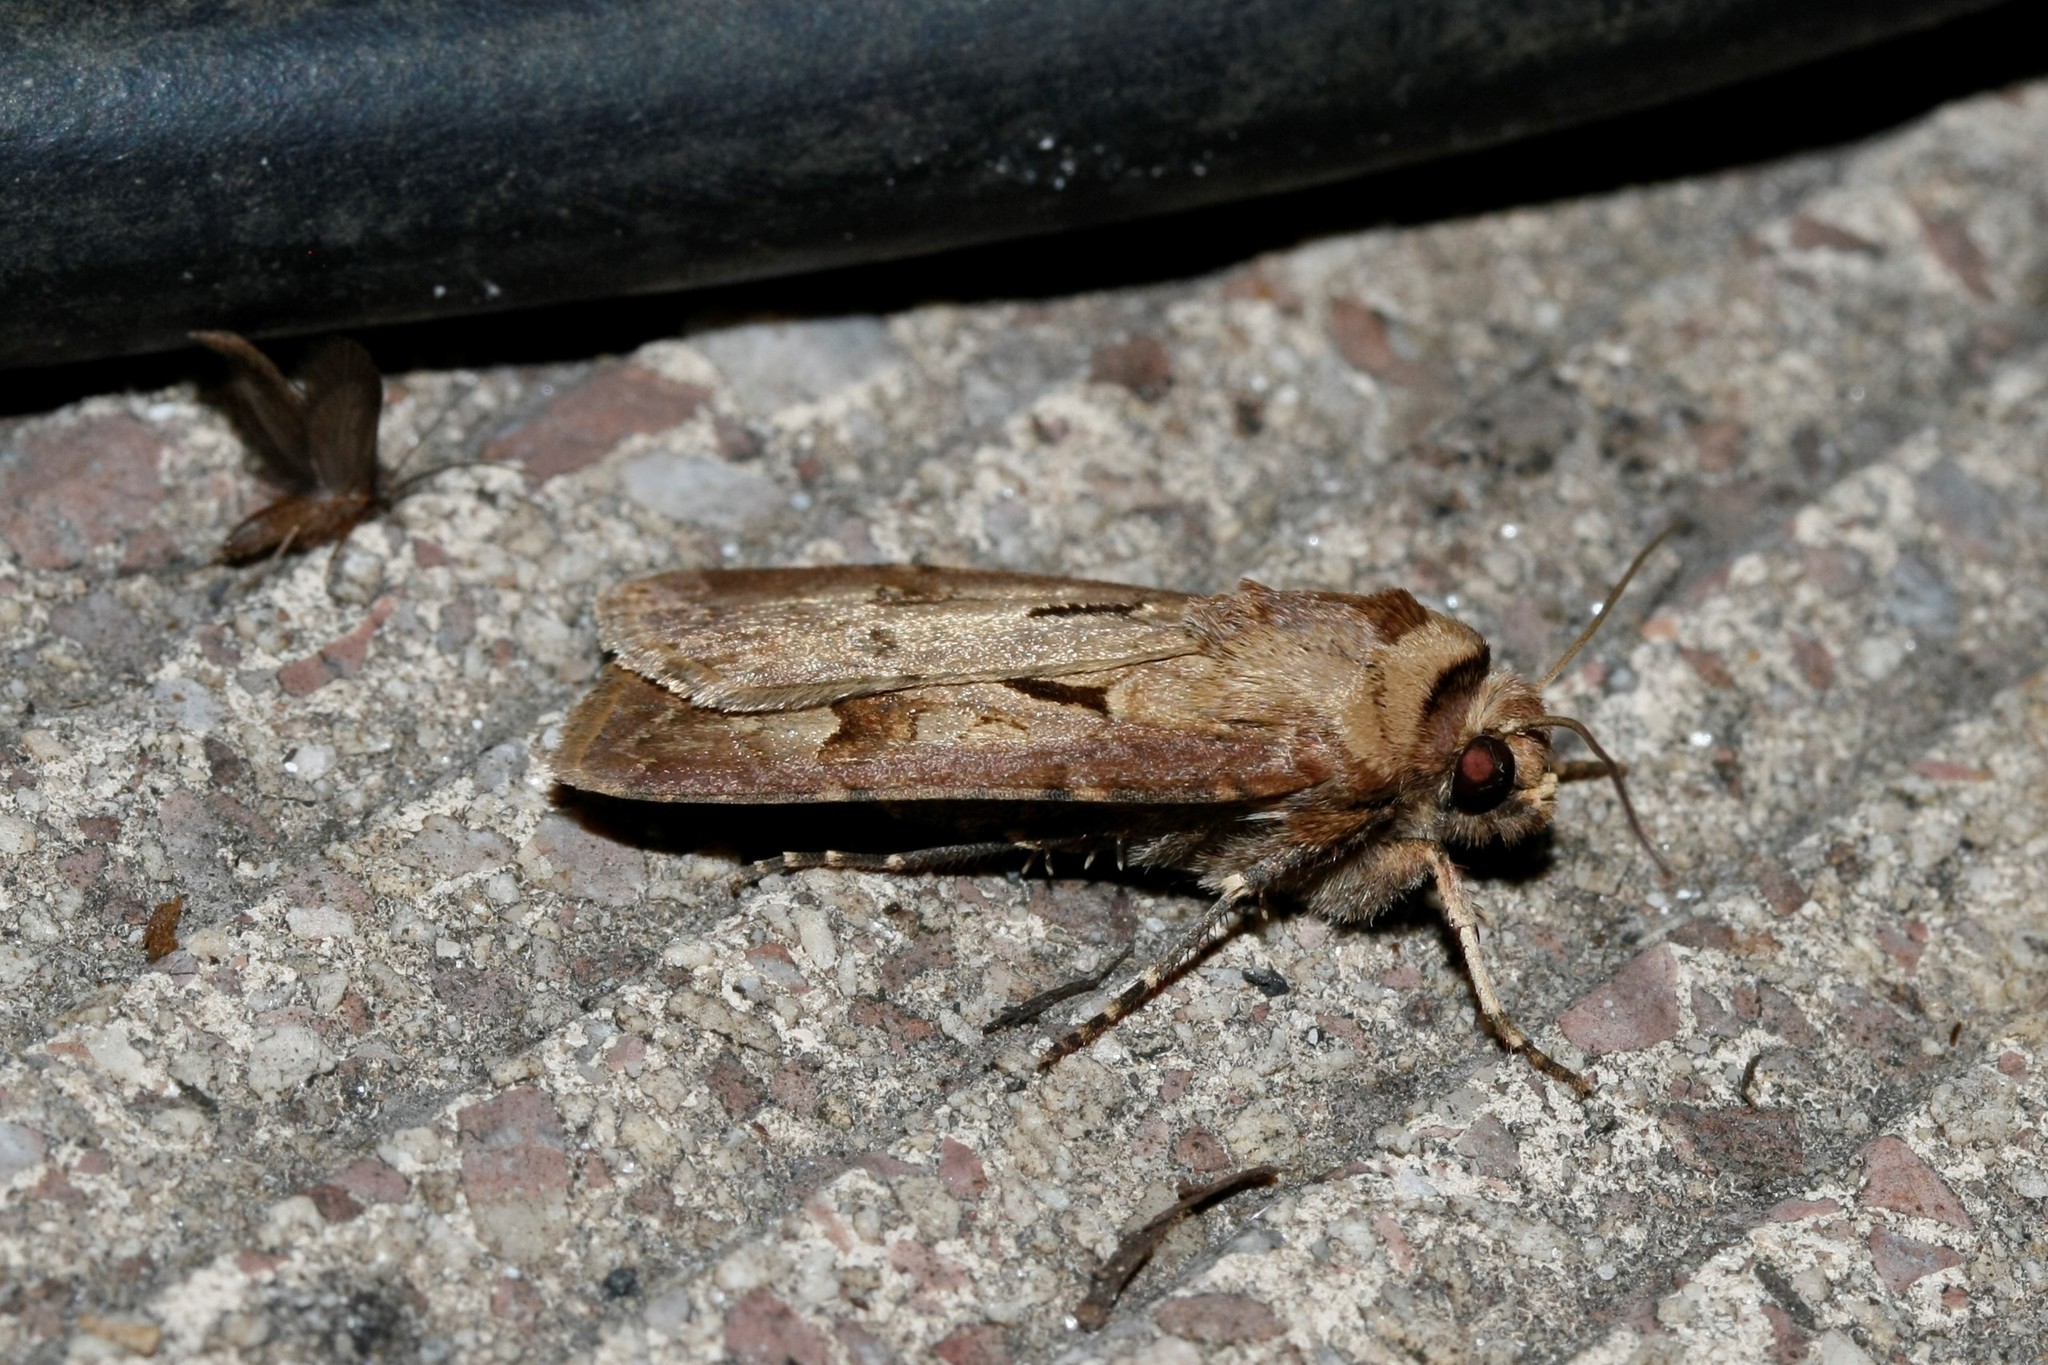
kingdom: Animalia
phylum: Arthropoda
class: Insecta
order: Lepidoptera
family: Noctuidae
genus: Agrotis
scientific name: Agrotis exclamationis
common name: Heart and dart
